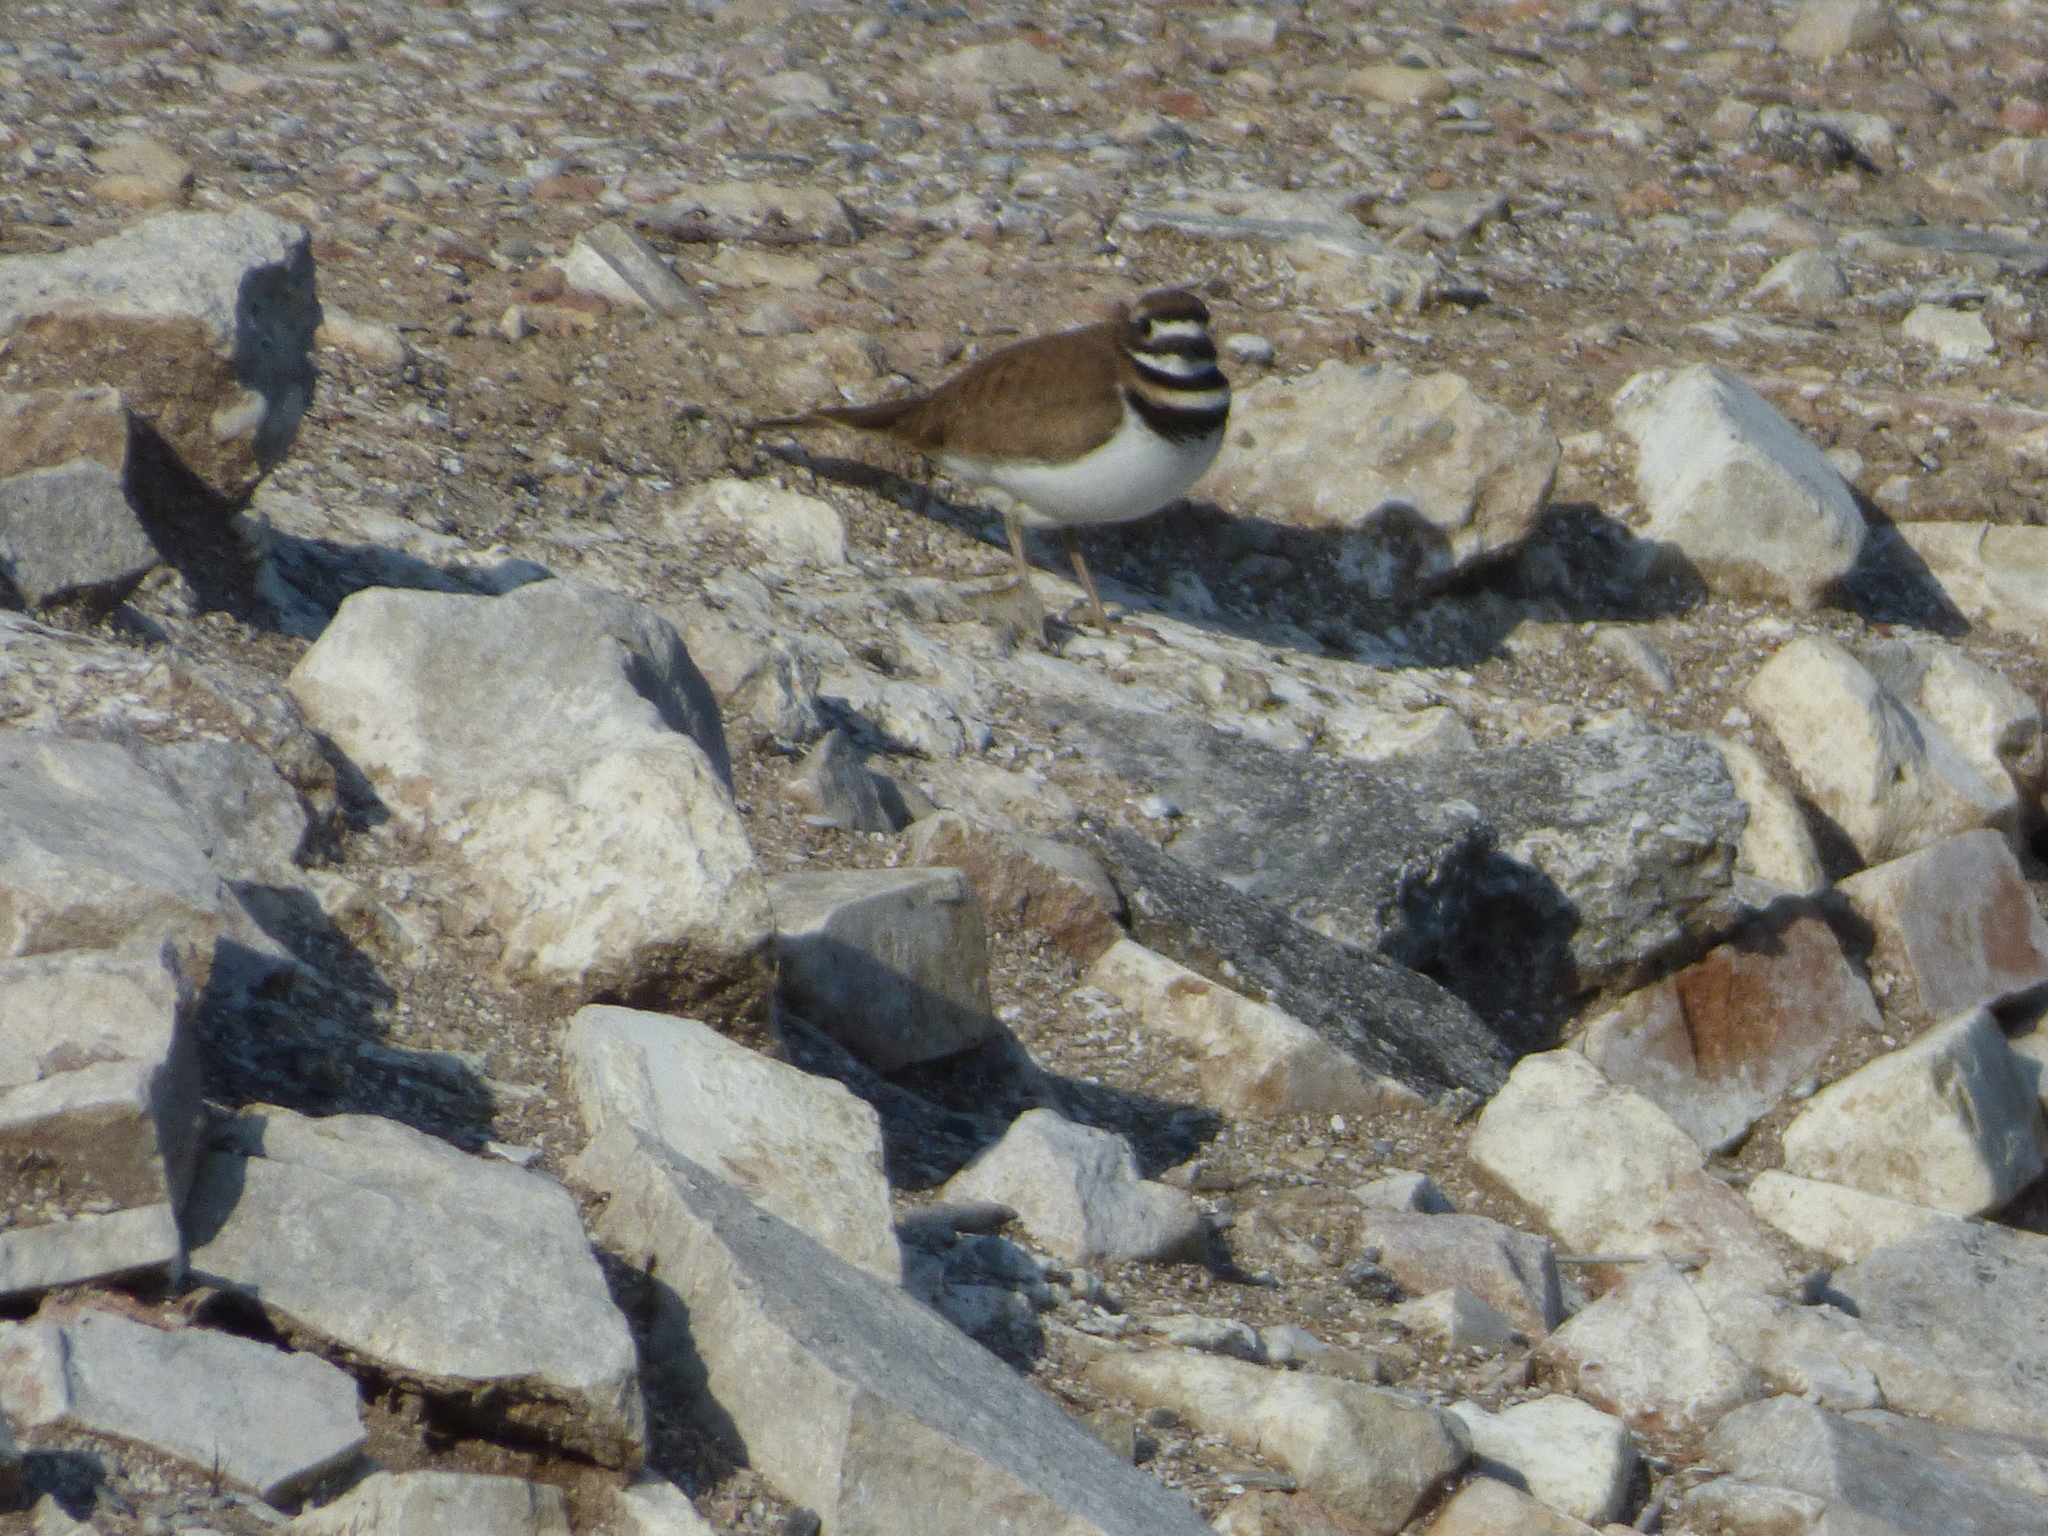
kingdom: Animalia
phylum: Chordata
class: Aves
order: Charadriiformes
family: Charadriidae
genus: Charadrius
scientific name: Charadrius vociferus
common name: Killdeer
